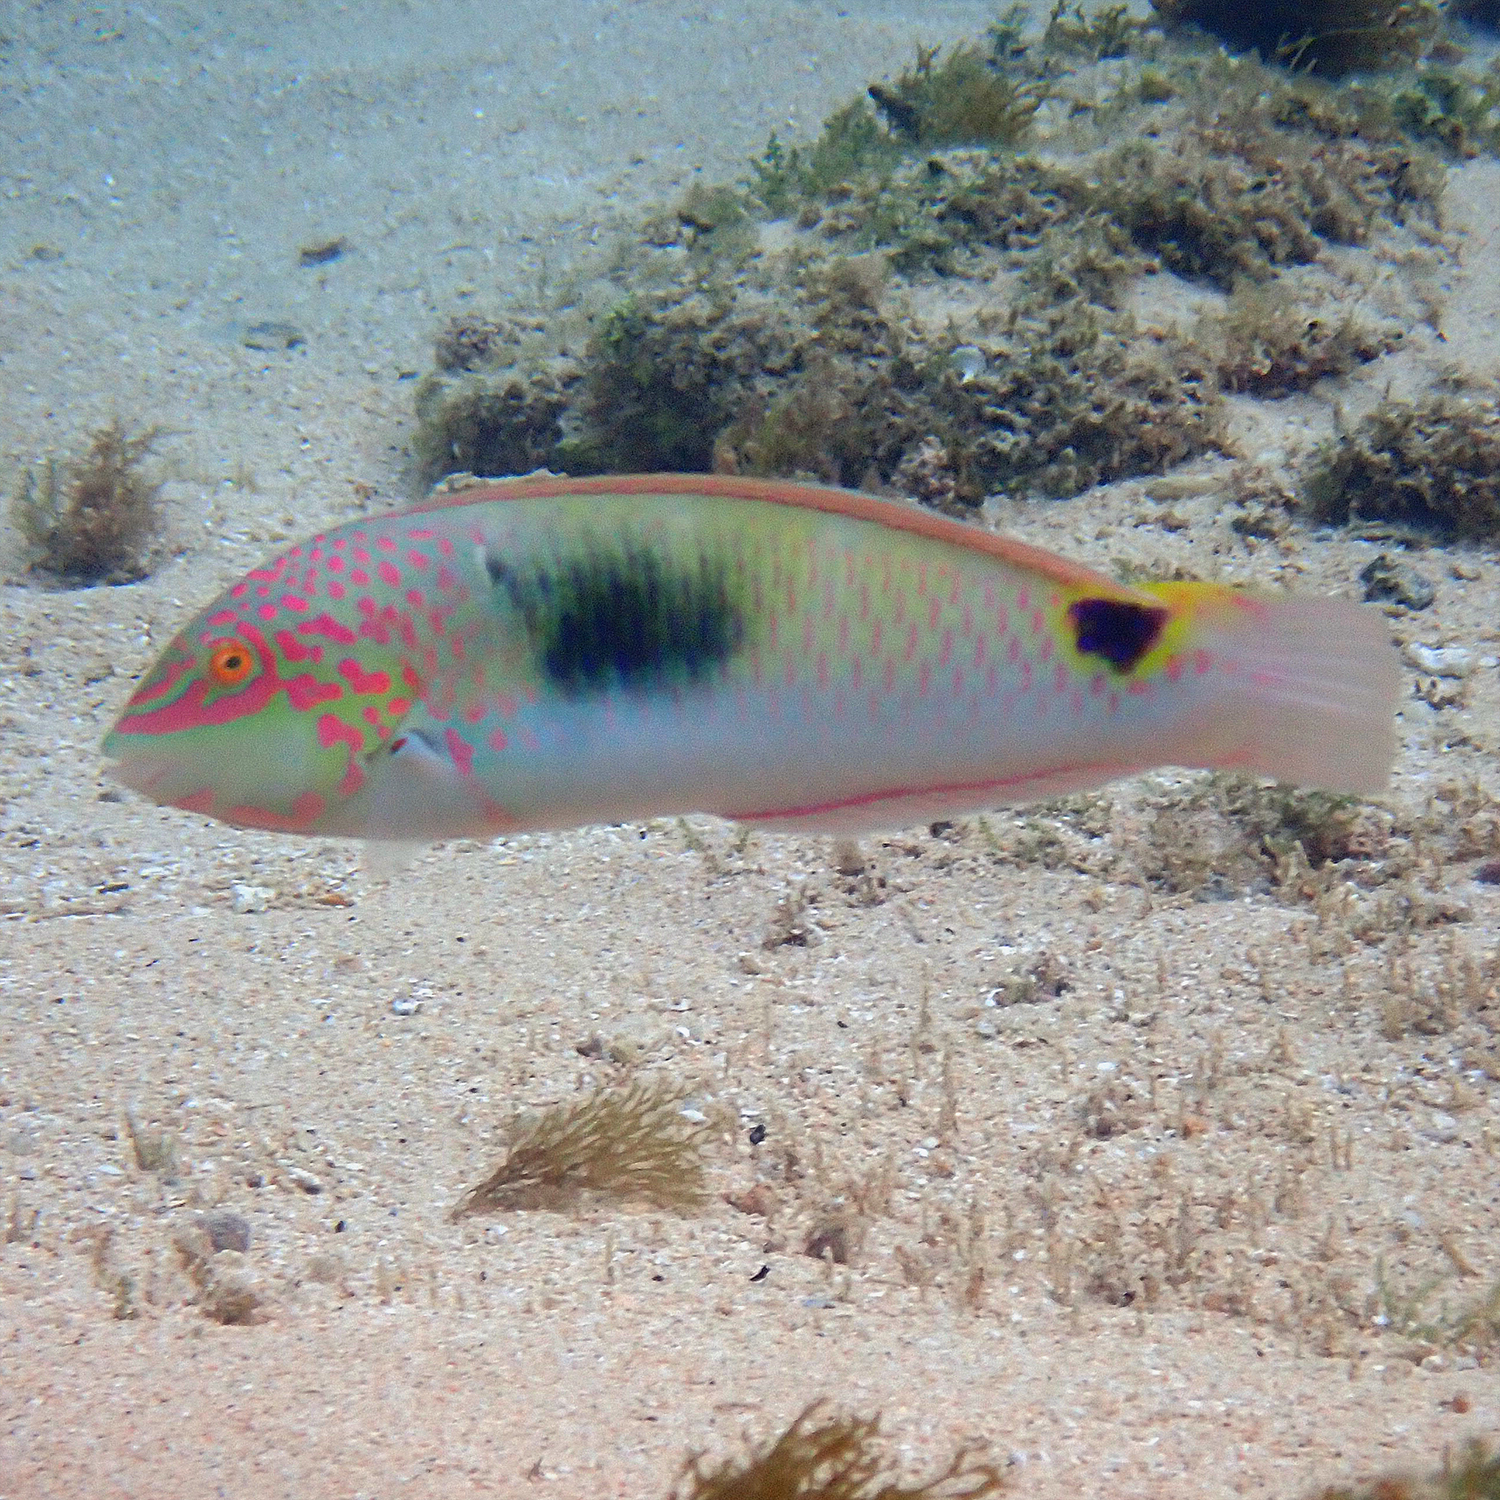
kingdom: Animalia
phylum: Chordata
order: Perciformes
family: Labridae
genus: Halichoeres
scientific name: Halichoeres trimaculatus
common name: Three-spot wrasse
